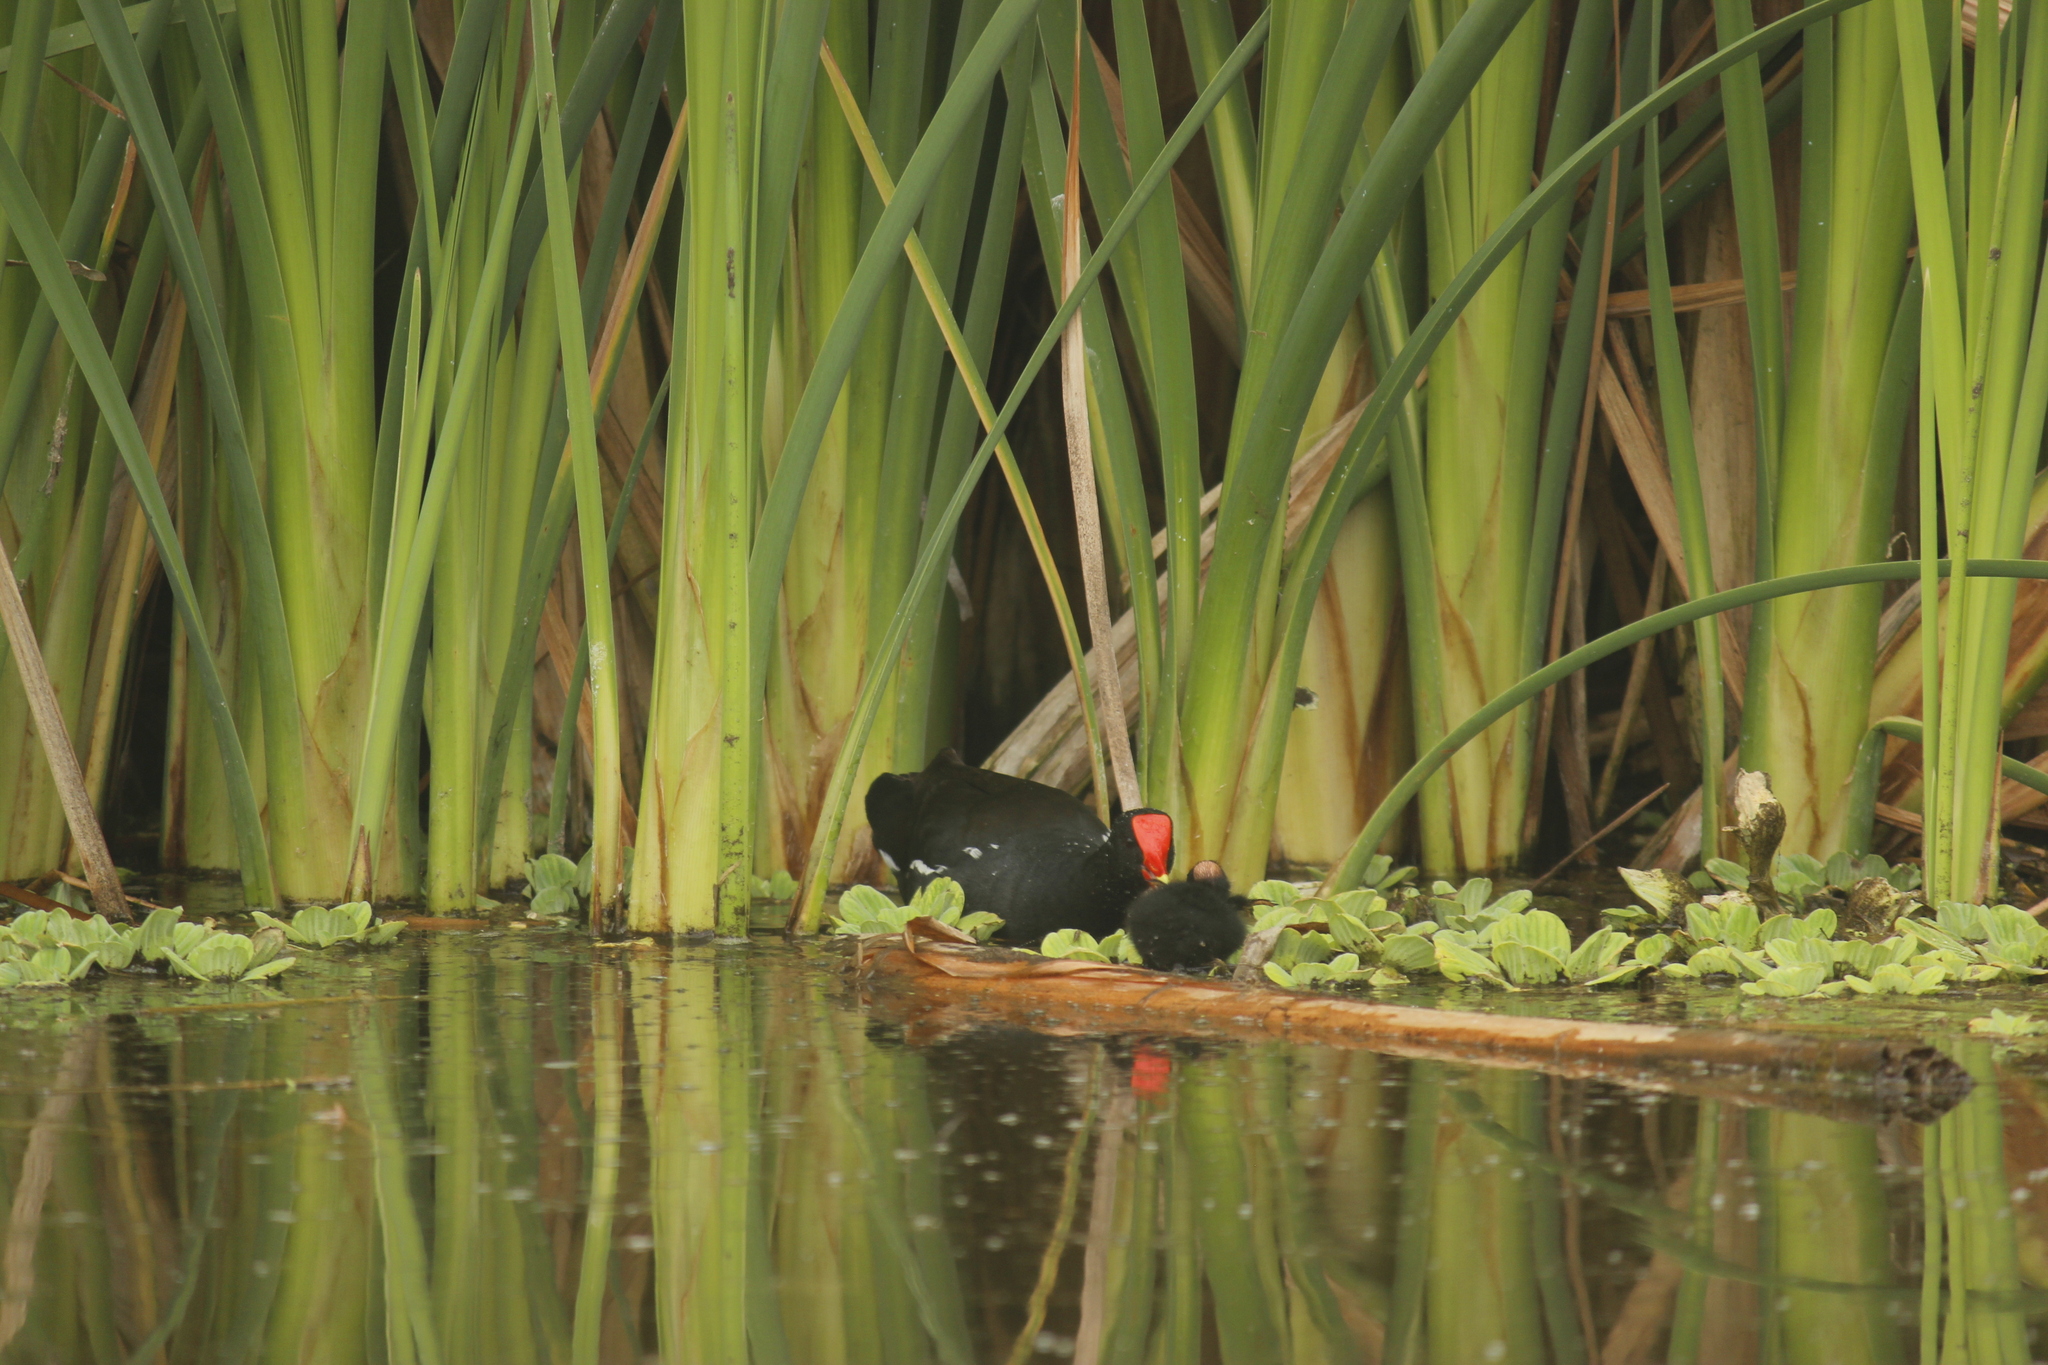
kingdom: Animalia
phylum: Chordata
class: Aves
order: Gruiformes
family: Rallidae
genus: Gallinula
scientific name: Gallinula chloropus
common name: Common moorhen
